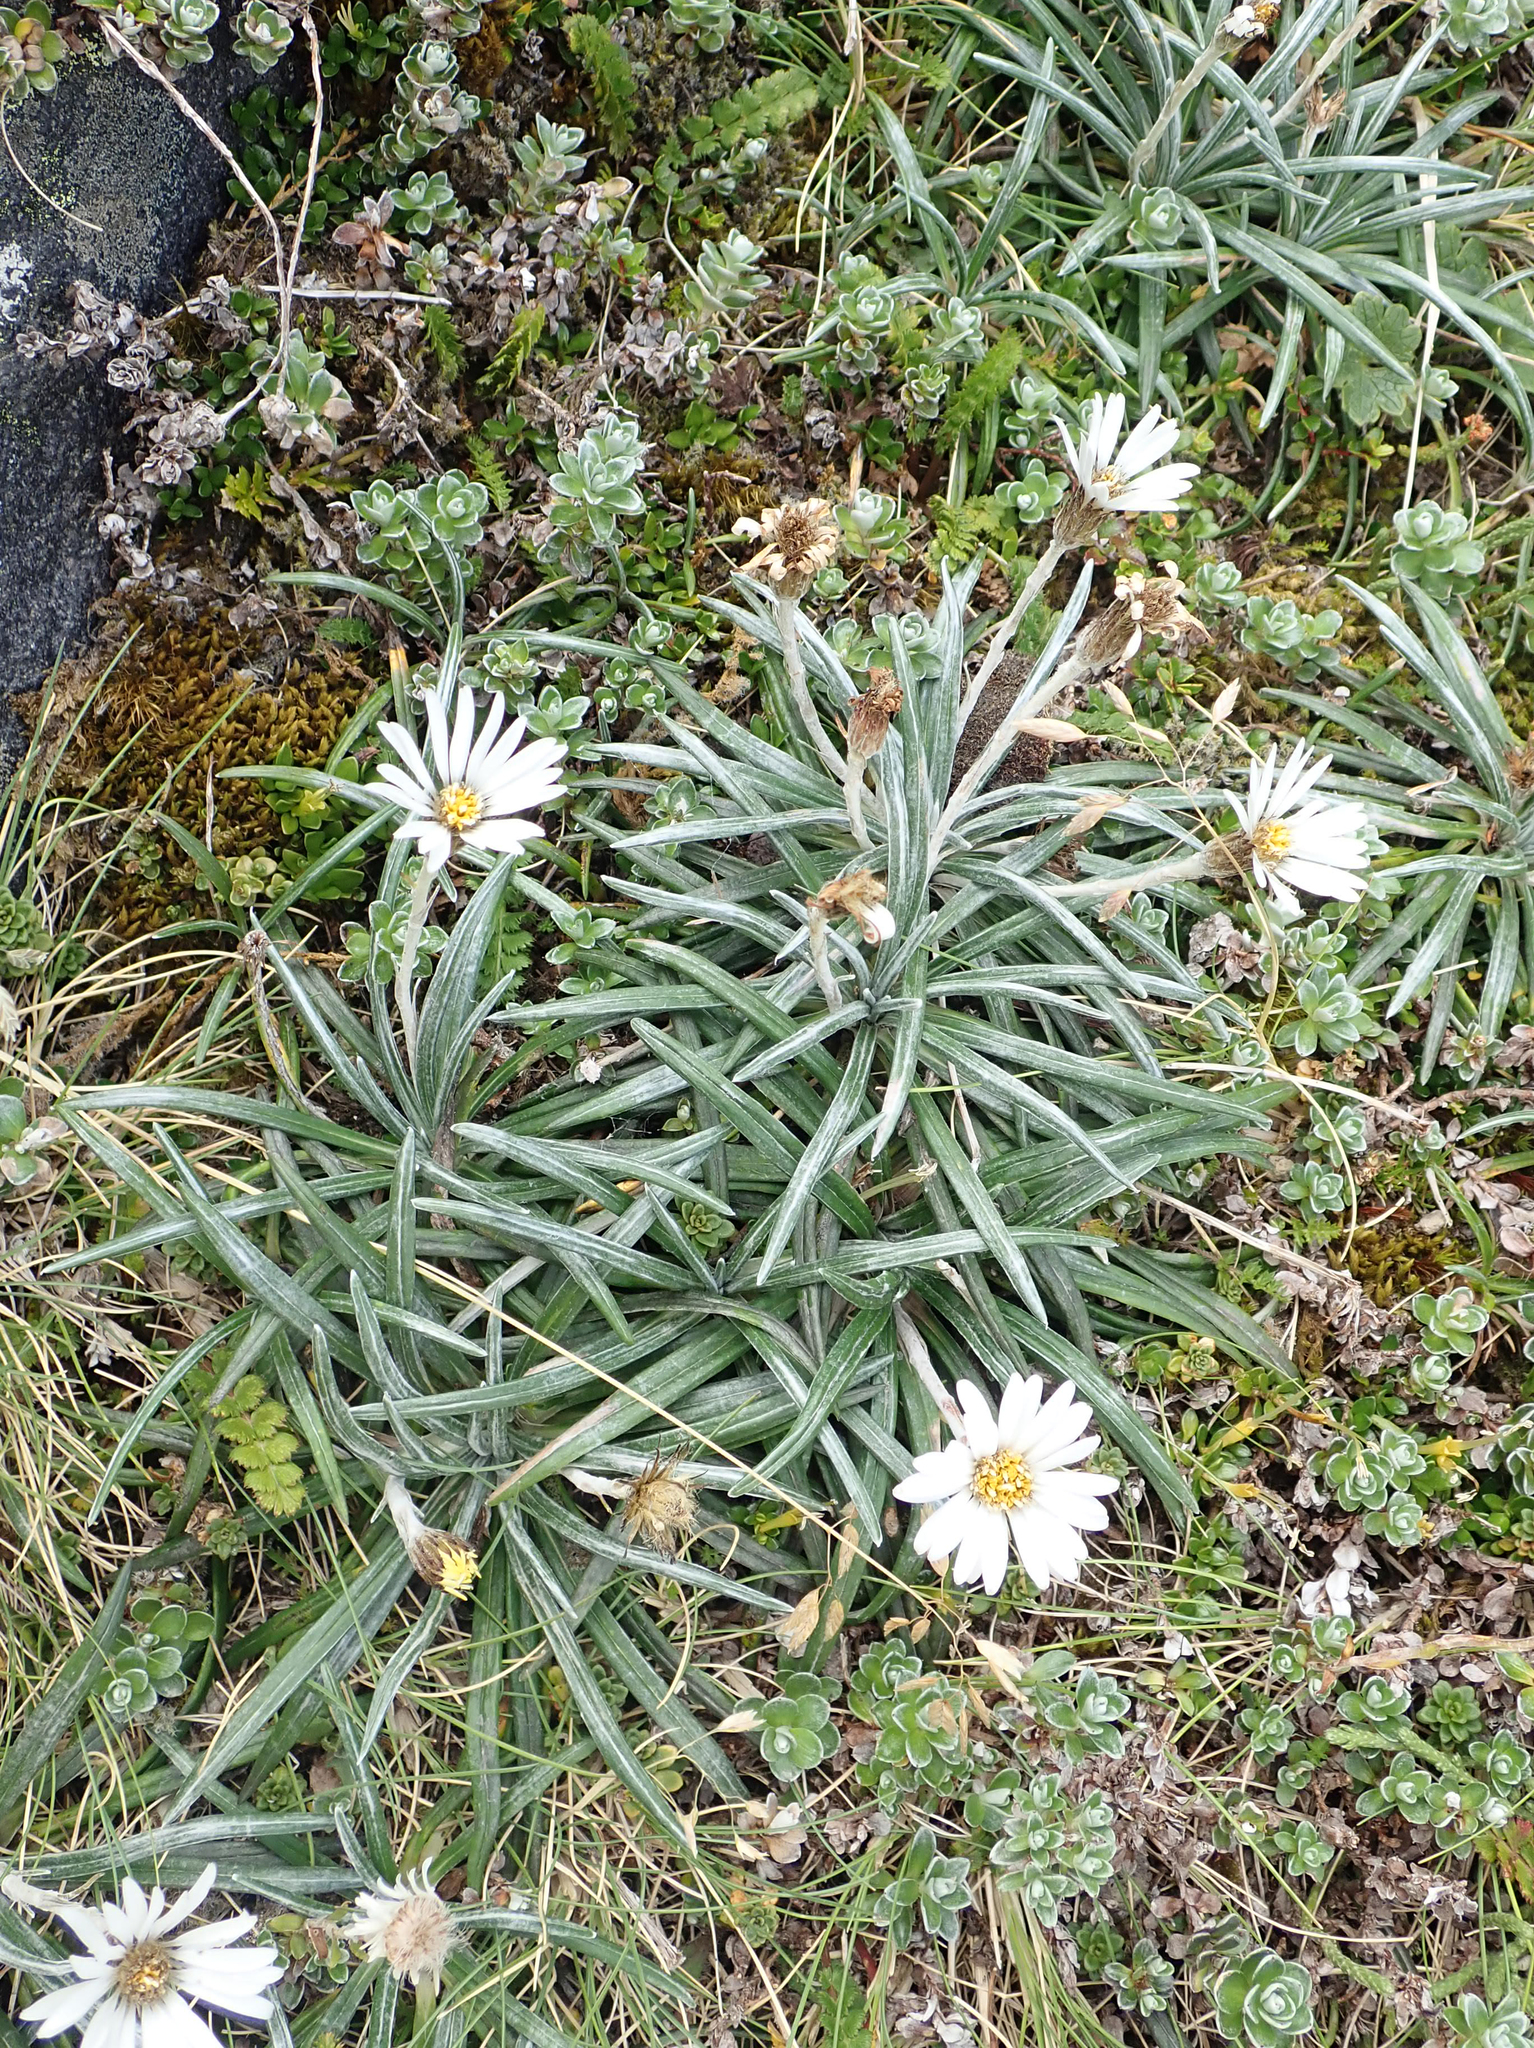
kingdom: Plantae
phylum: Tracheophyta
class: Magnoliopsida
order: Asterales
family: Asteraceae
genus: Celmisia
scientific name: Celmisia major
